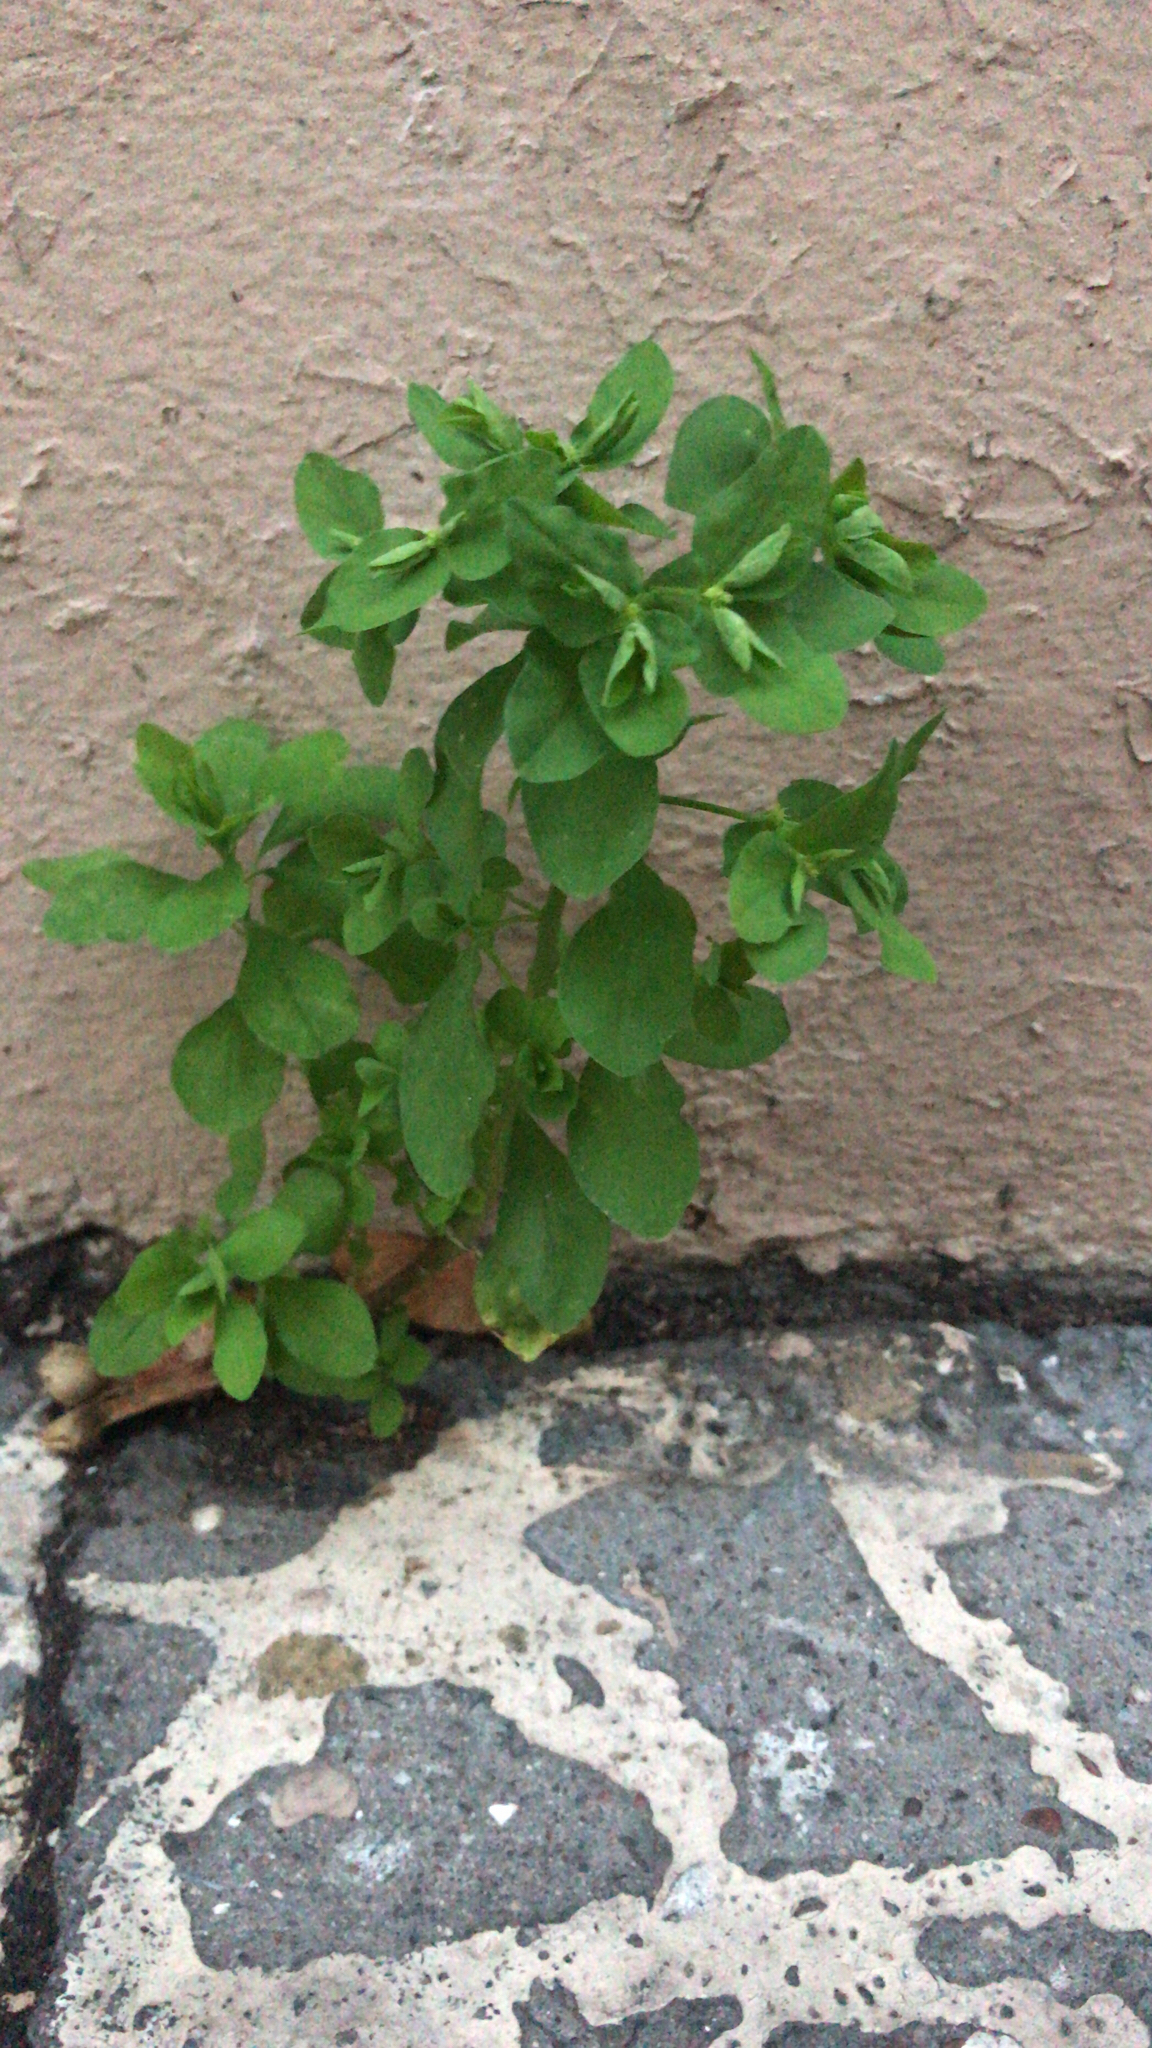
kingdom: Plantae
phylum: Tracheophyta
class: Magnoliopsida
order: Malpighiales
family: Euphorbiaceae
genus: Euphorbia
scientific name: Euphorbia peplus
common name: Petty spurge
